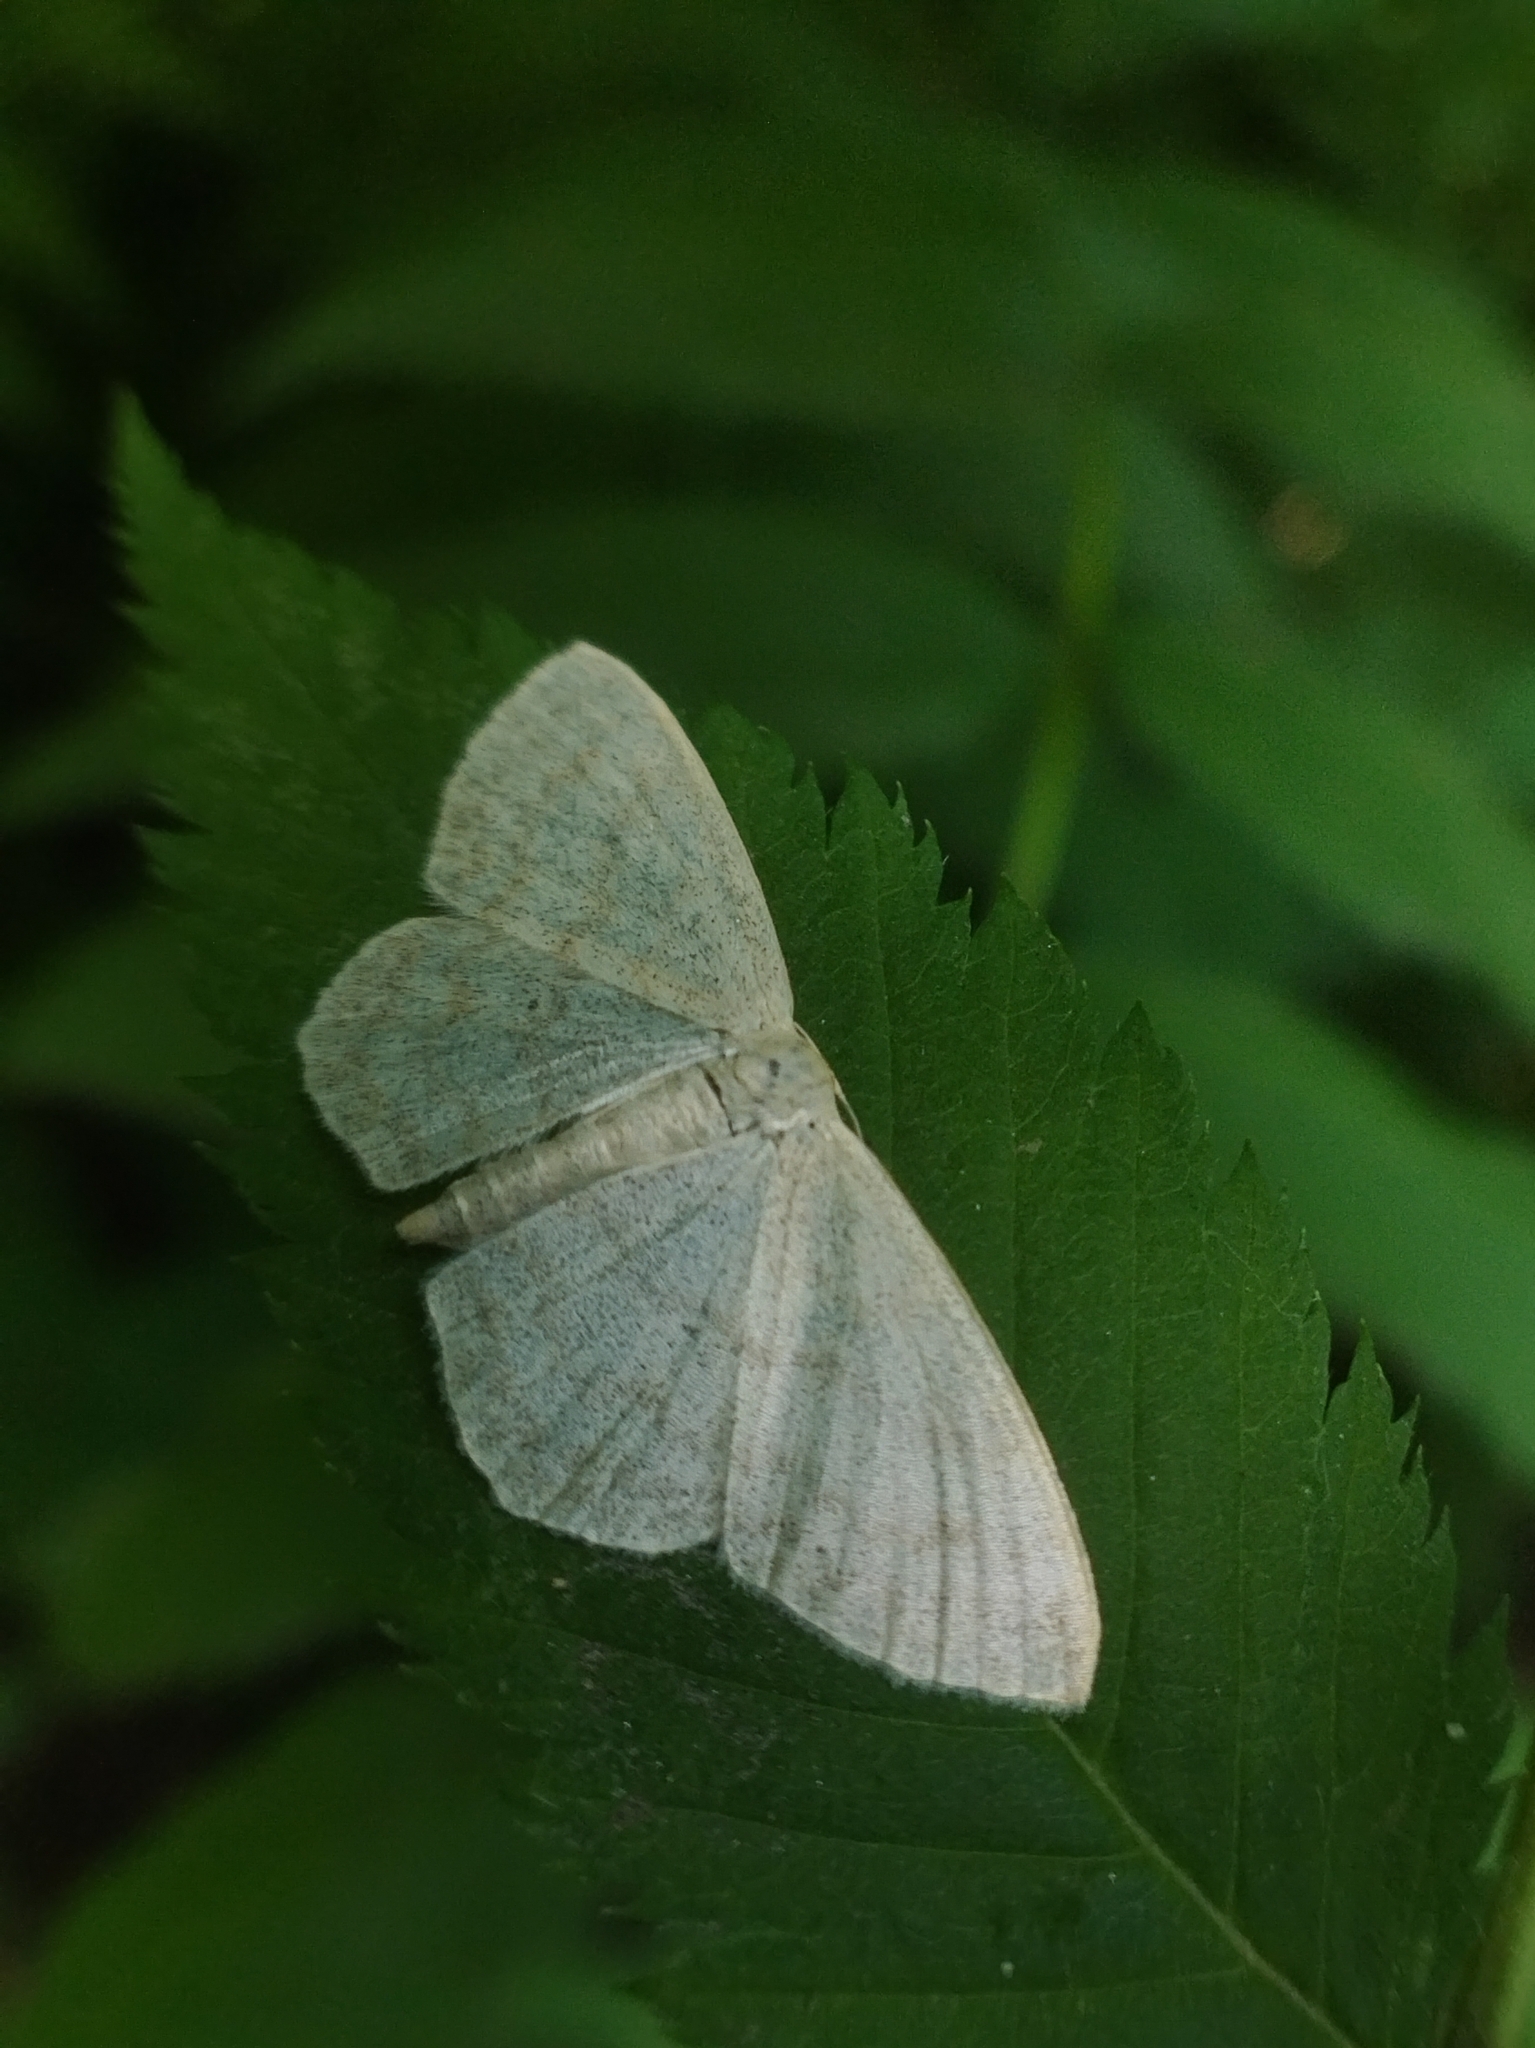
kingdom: Animalia
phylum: Arthropoda
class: Insecta
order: Lepidoptera
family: Geometridae
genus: Scopula
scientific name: Scopula immutata
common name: Lesser cream wave
